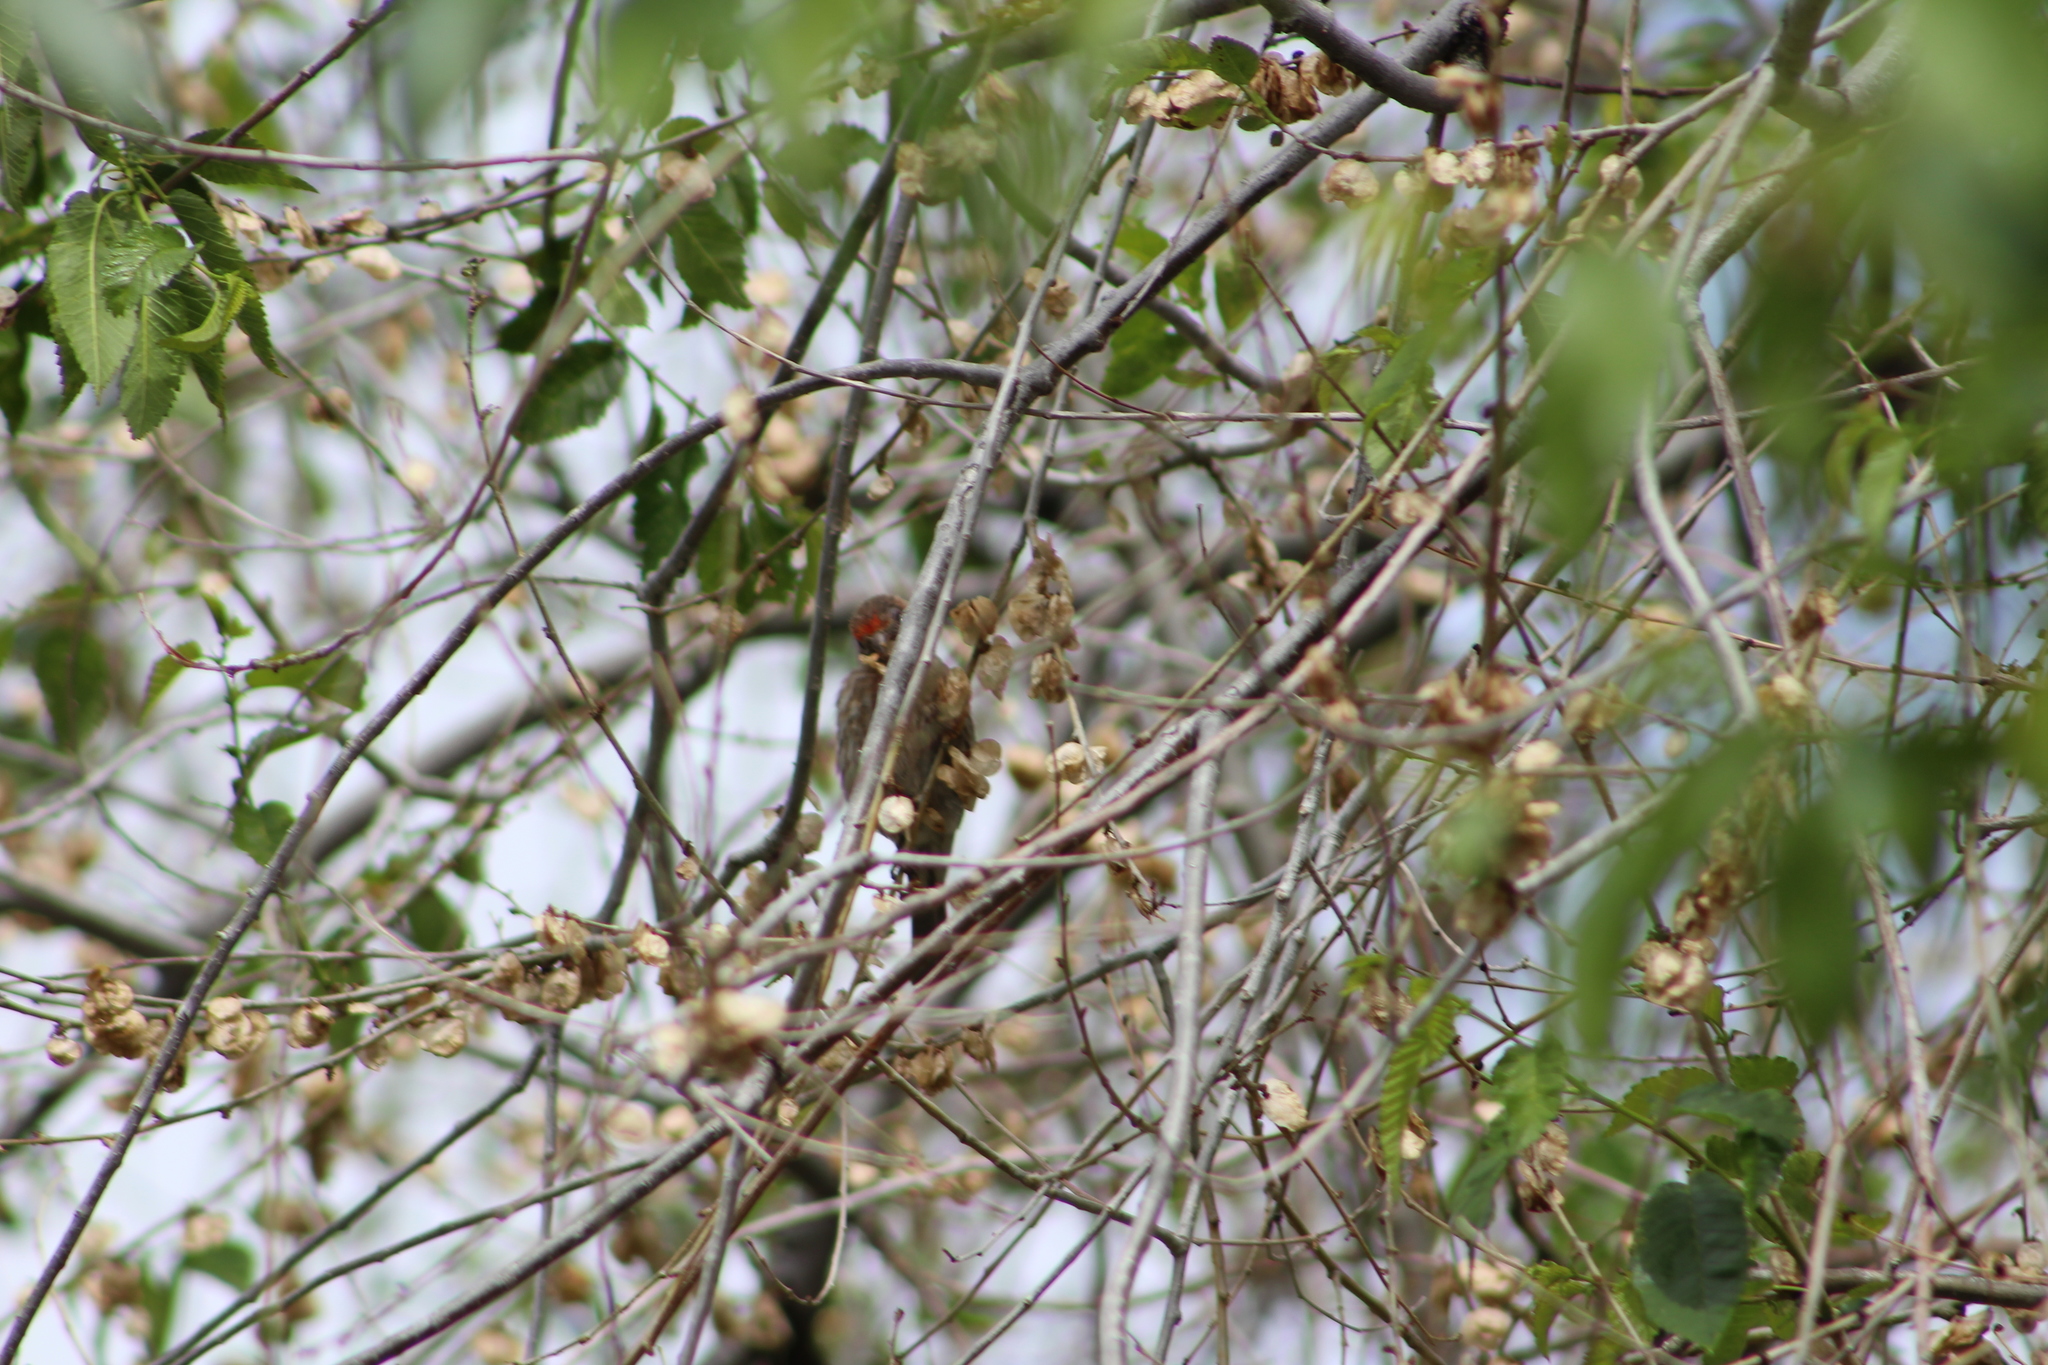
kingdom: Animalia
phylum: Chordata
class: Aves
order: Passeriformes
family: Fringillidae
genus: Haemorhous
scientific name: Haemorhous mexicanus
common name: House finch
